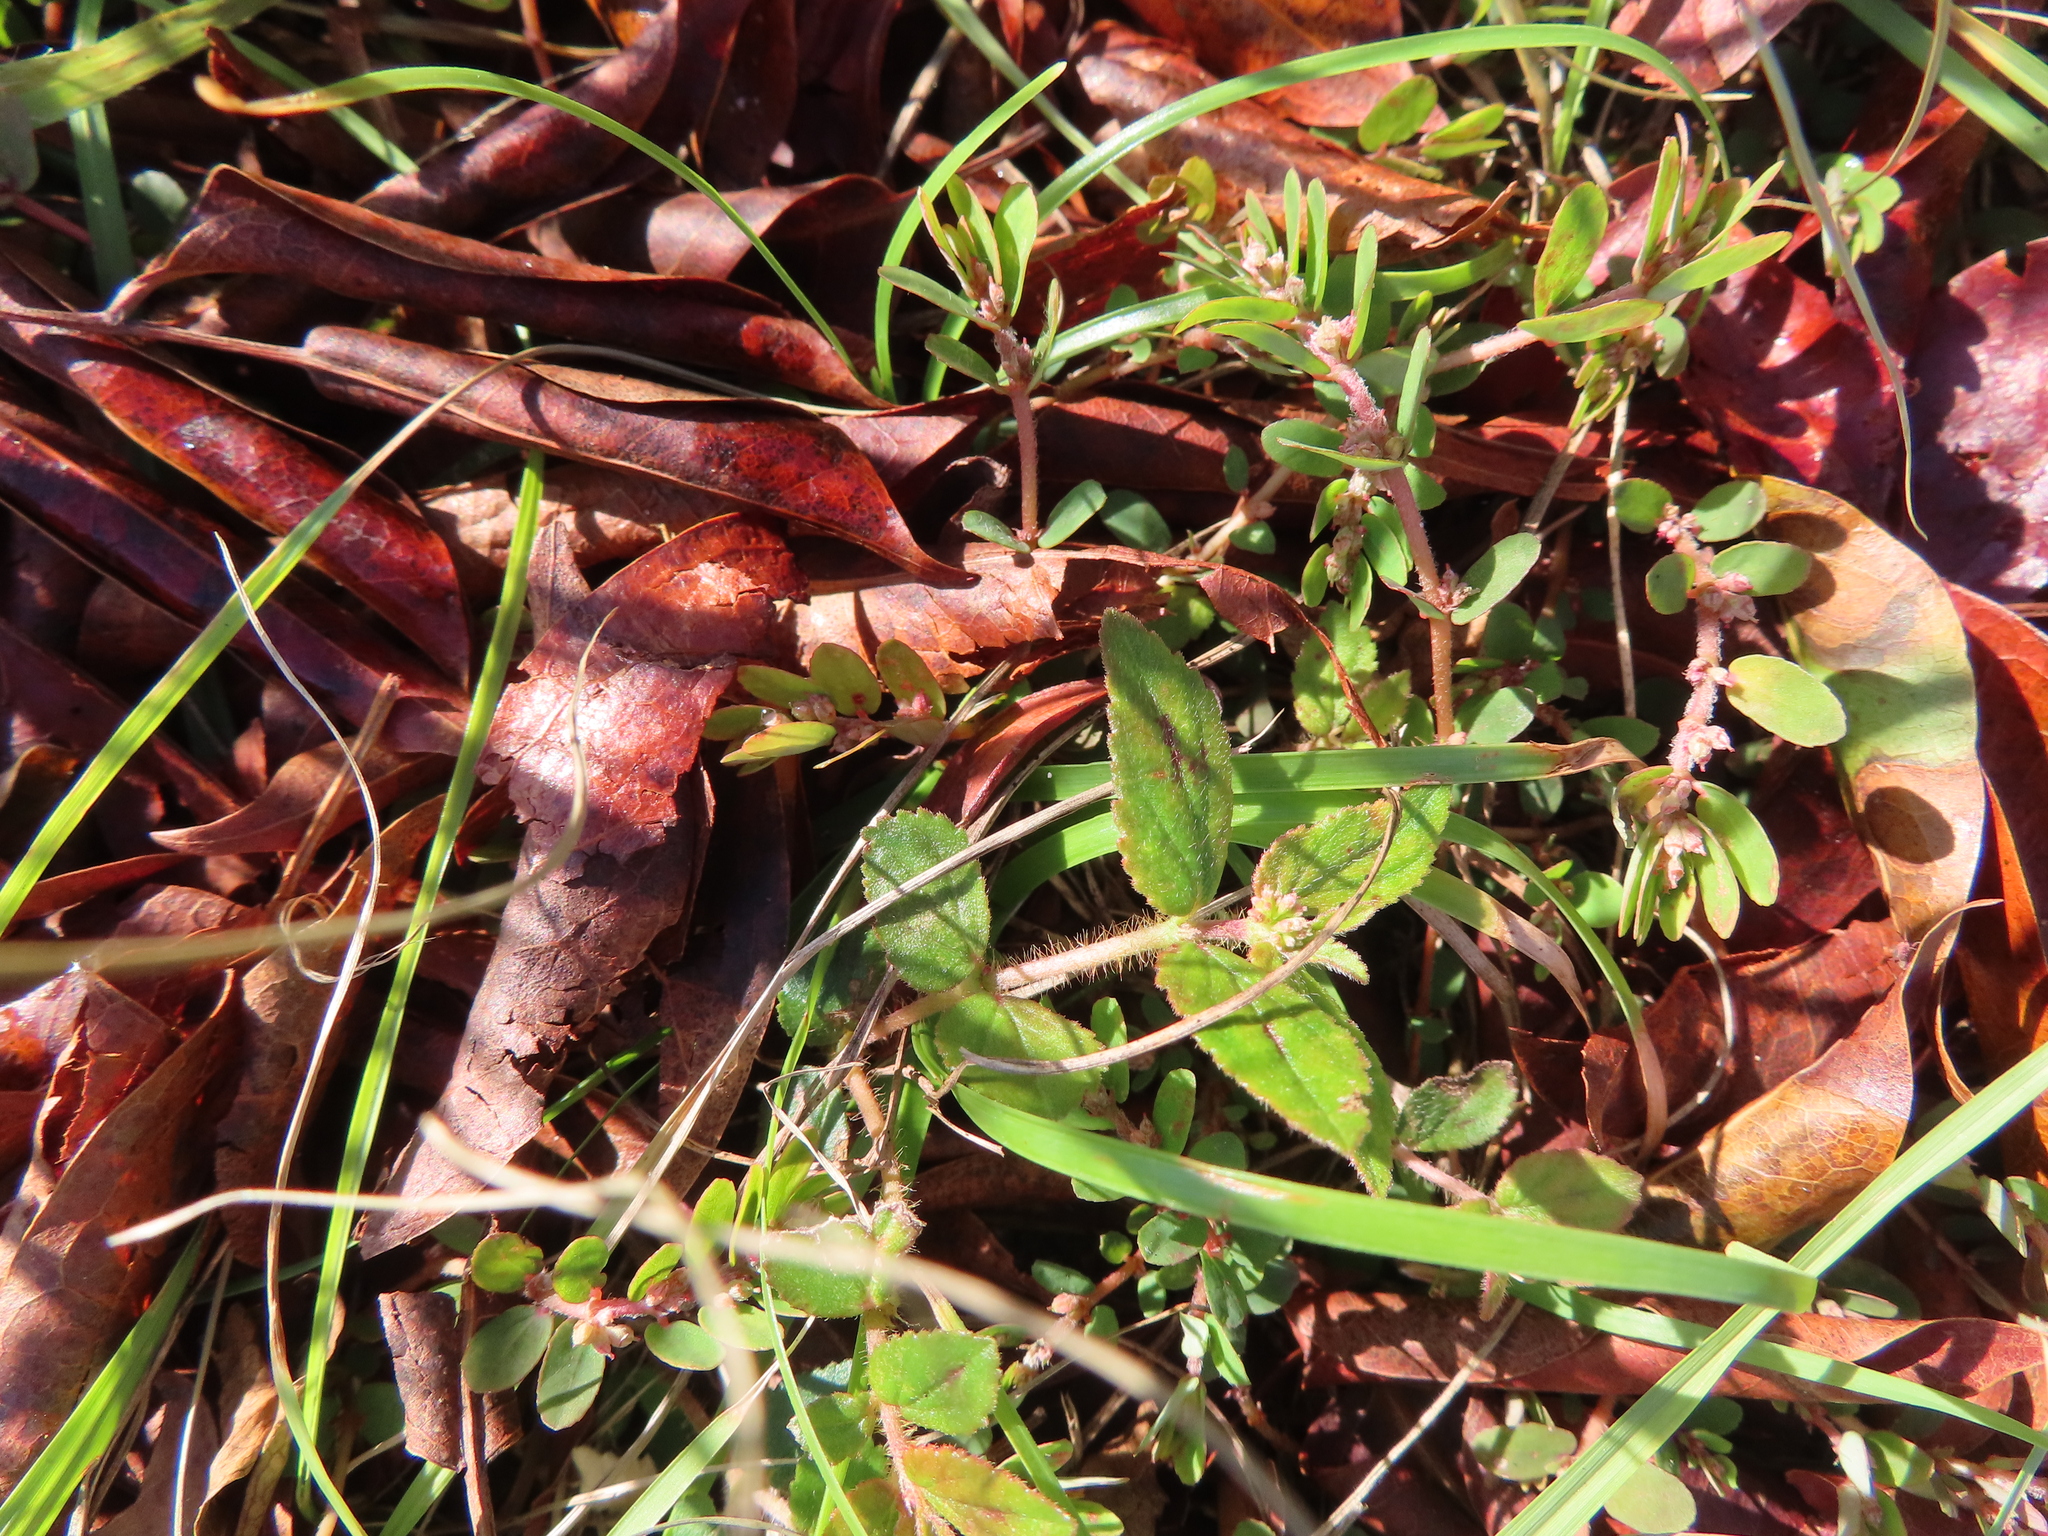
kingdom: Plantae
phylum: Tracheophyta
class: Magnoliopsida
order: Malpighiales
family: Euphorbiaceae
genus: Euphorbia
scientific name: Euphorbia hirta
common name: Pillpod sandmat
